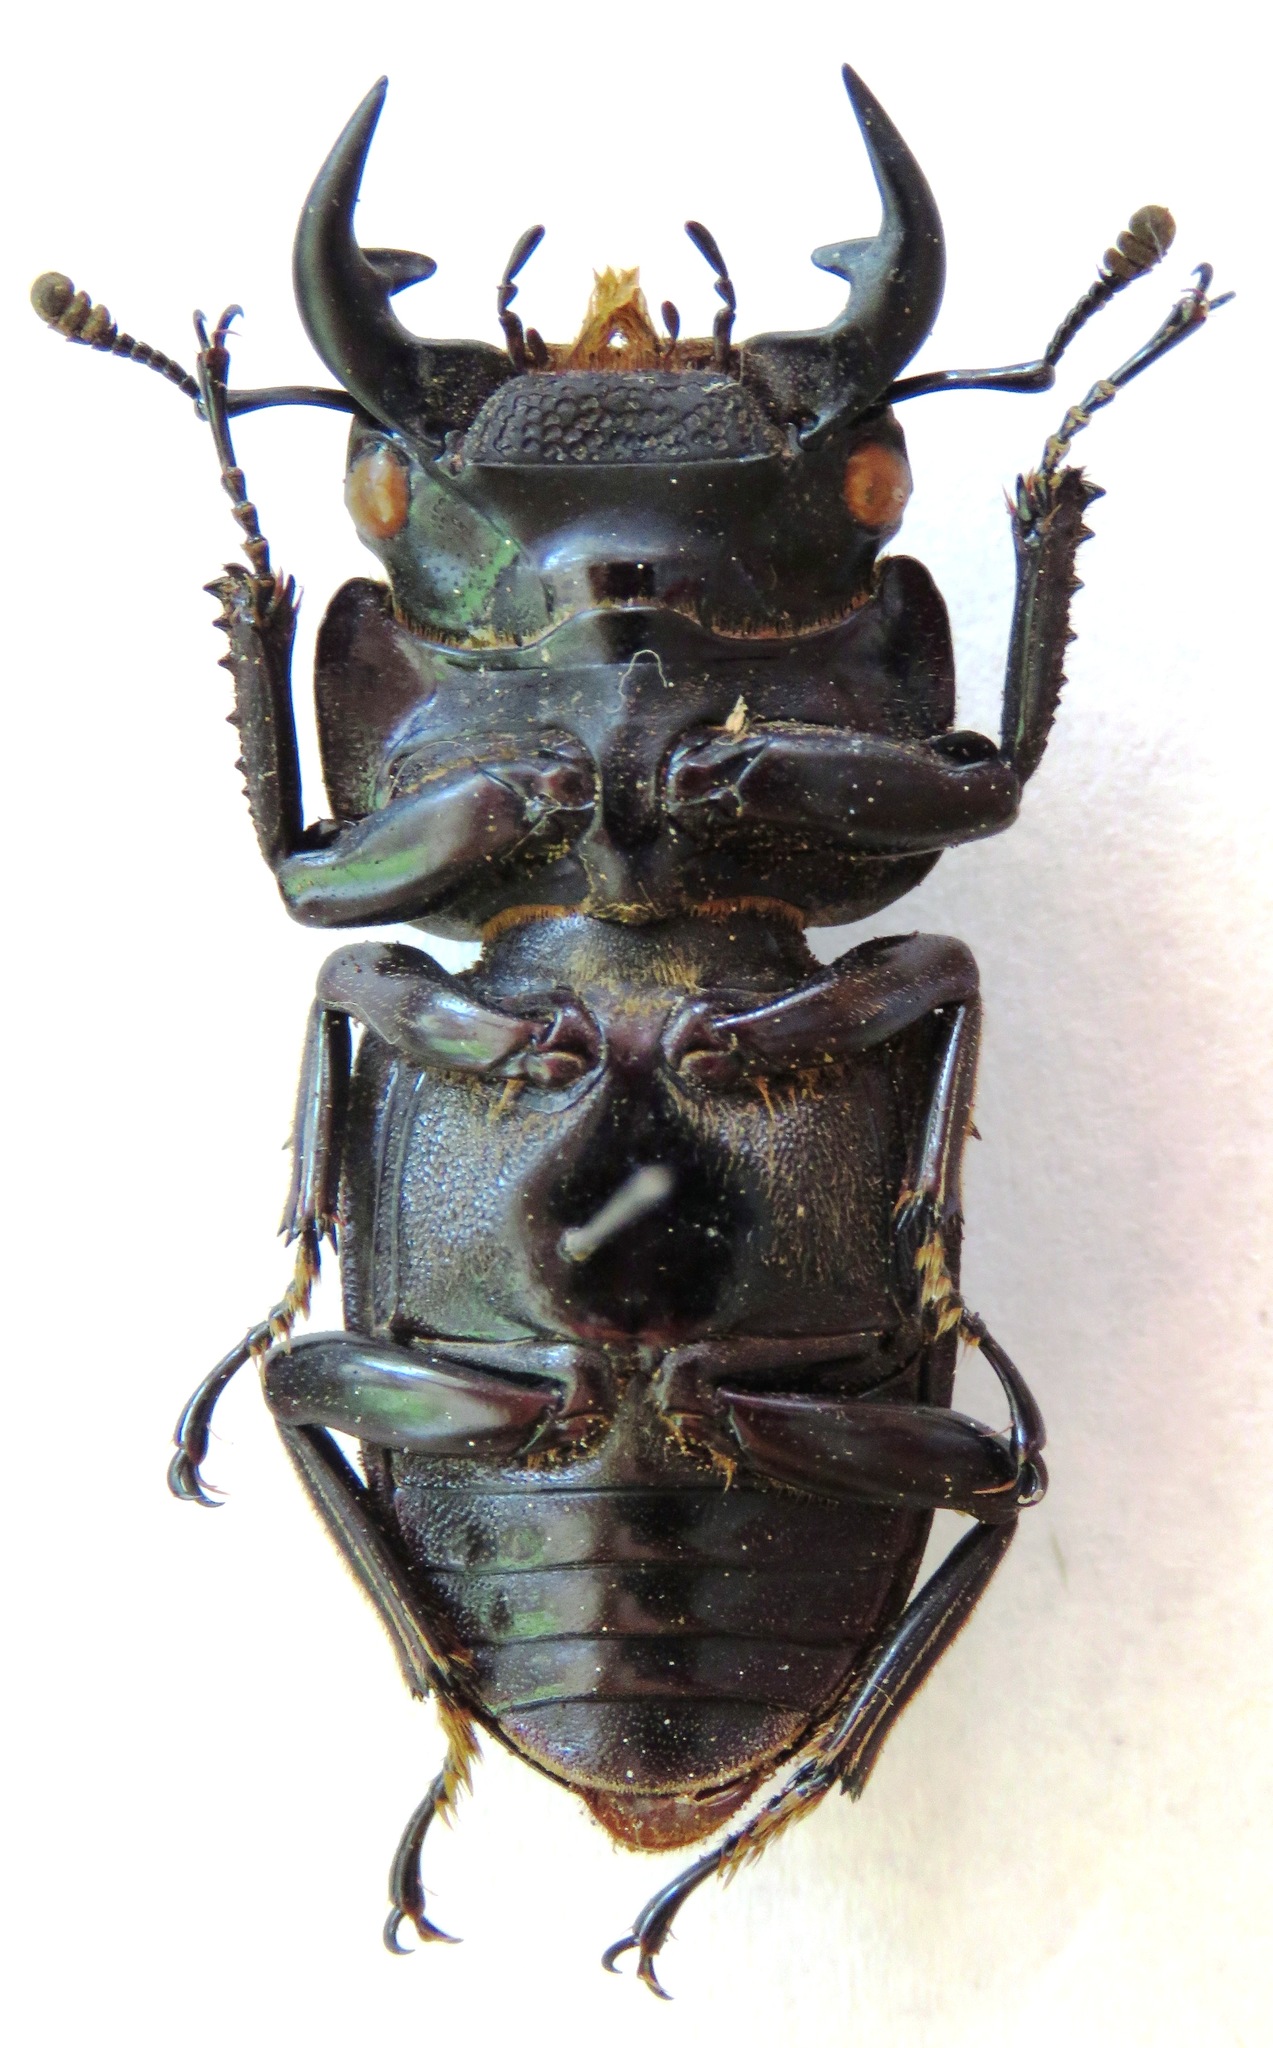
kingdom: Animalia
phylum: Arthropoda
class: Insecta
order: Coleoptera
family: Lucanidae
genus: Dorcus
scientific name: Dorcus curvidens
